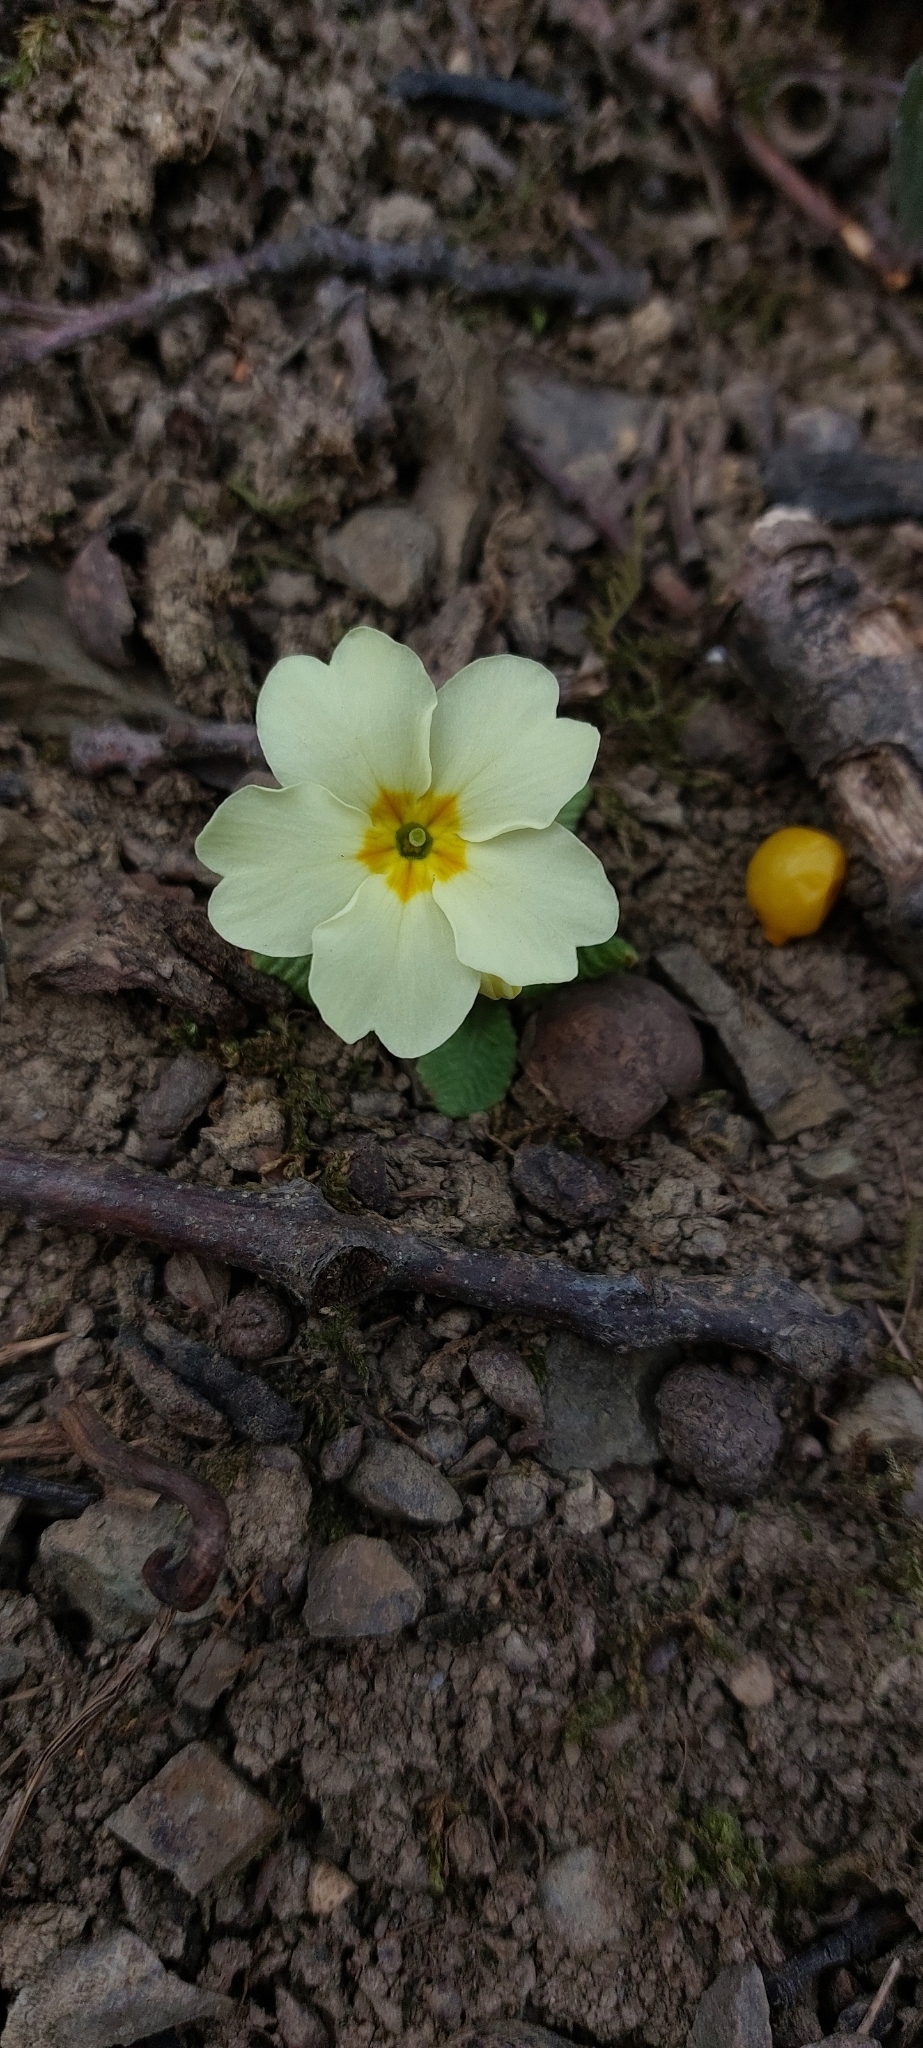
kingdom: Plantae
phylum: Tracheophyta
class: Magnoliopsida
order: Ericales
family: Primulaceae
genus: Primula
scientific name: Primula vulgaris
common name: Primrose
